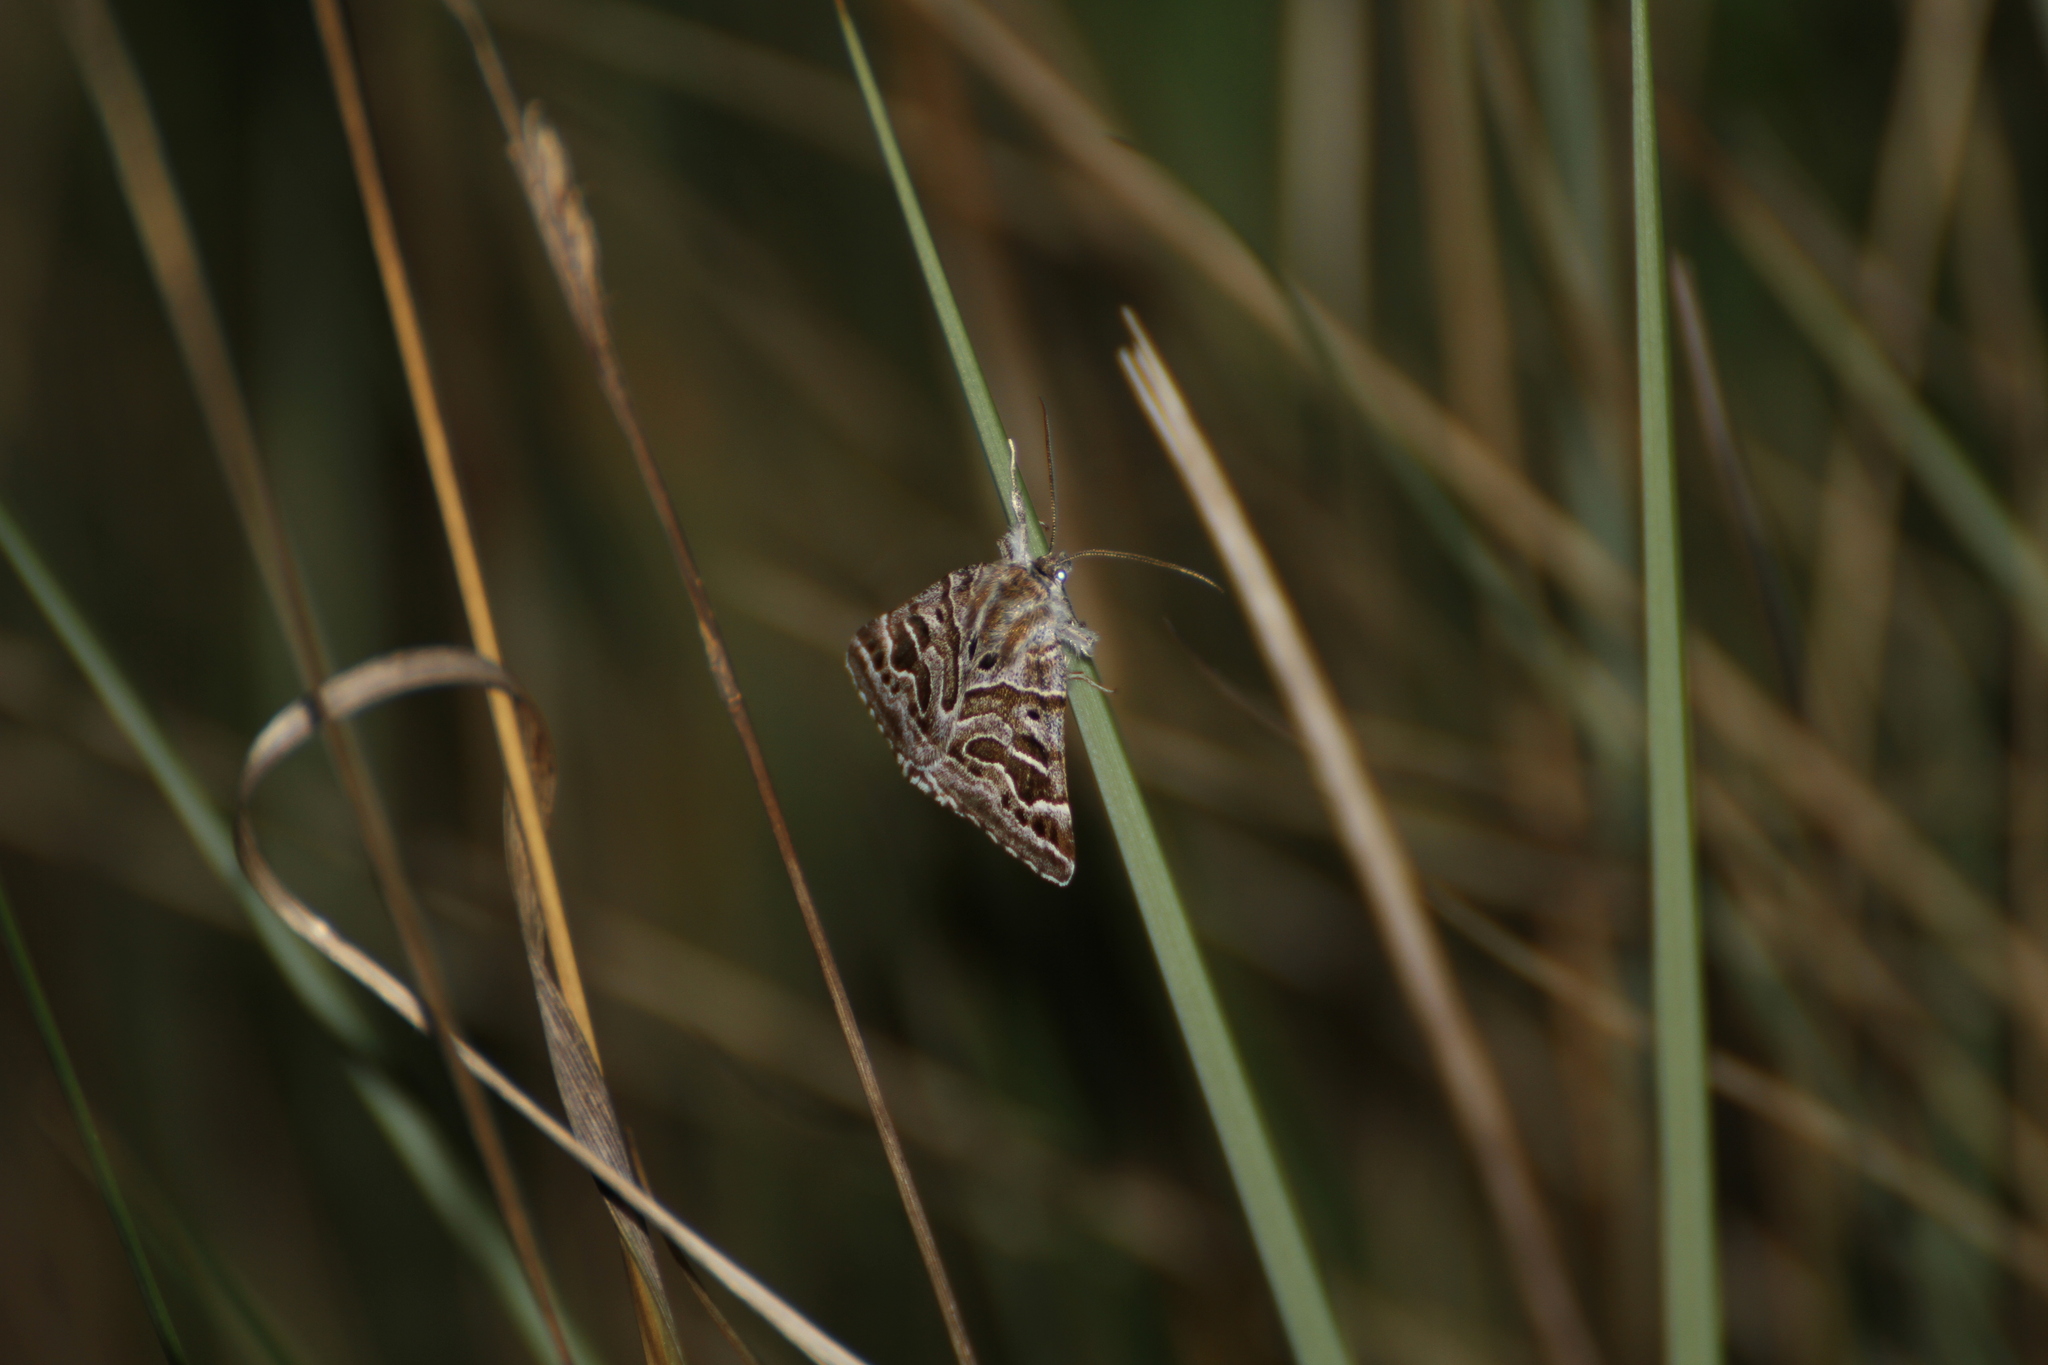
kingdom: Animalia
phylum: Arthropoda
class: Insecta
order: Lepidoptera
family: Erebidae
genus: Callistege
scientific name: Callistege mi
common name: Mother shipton
